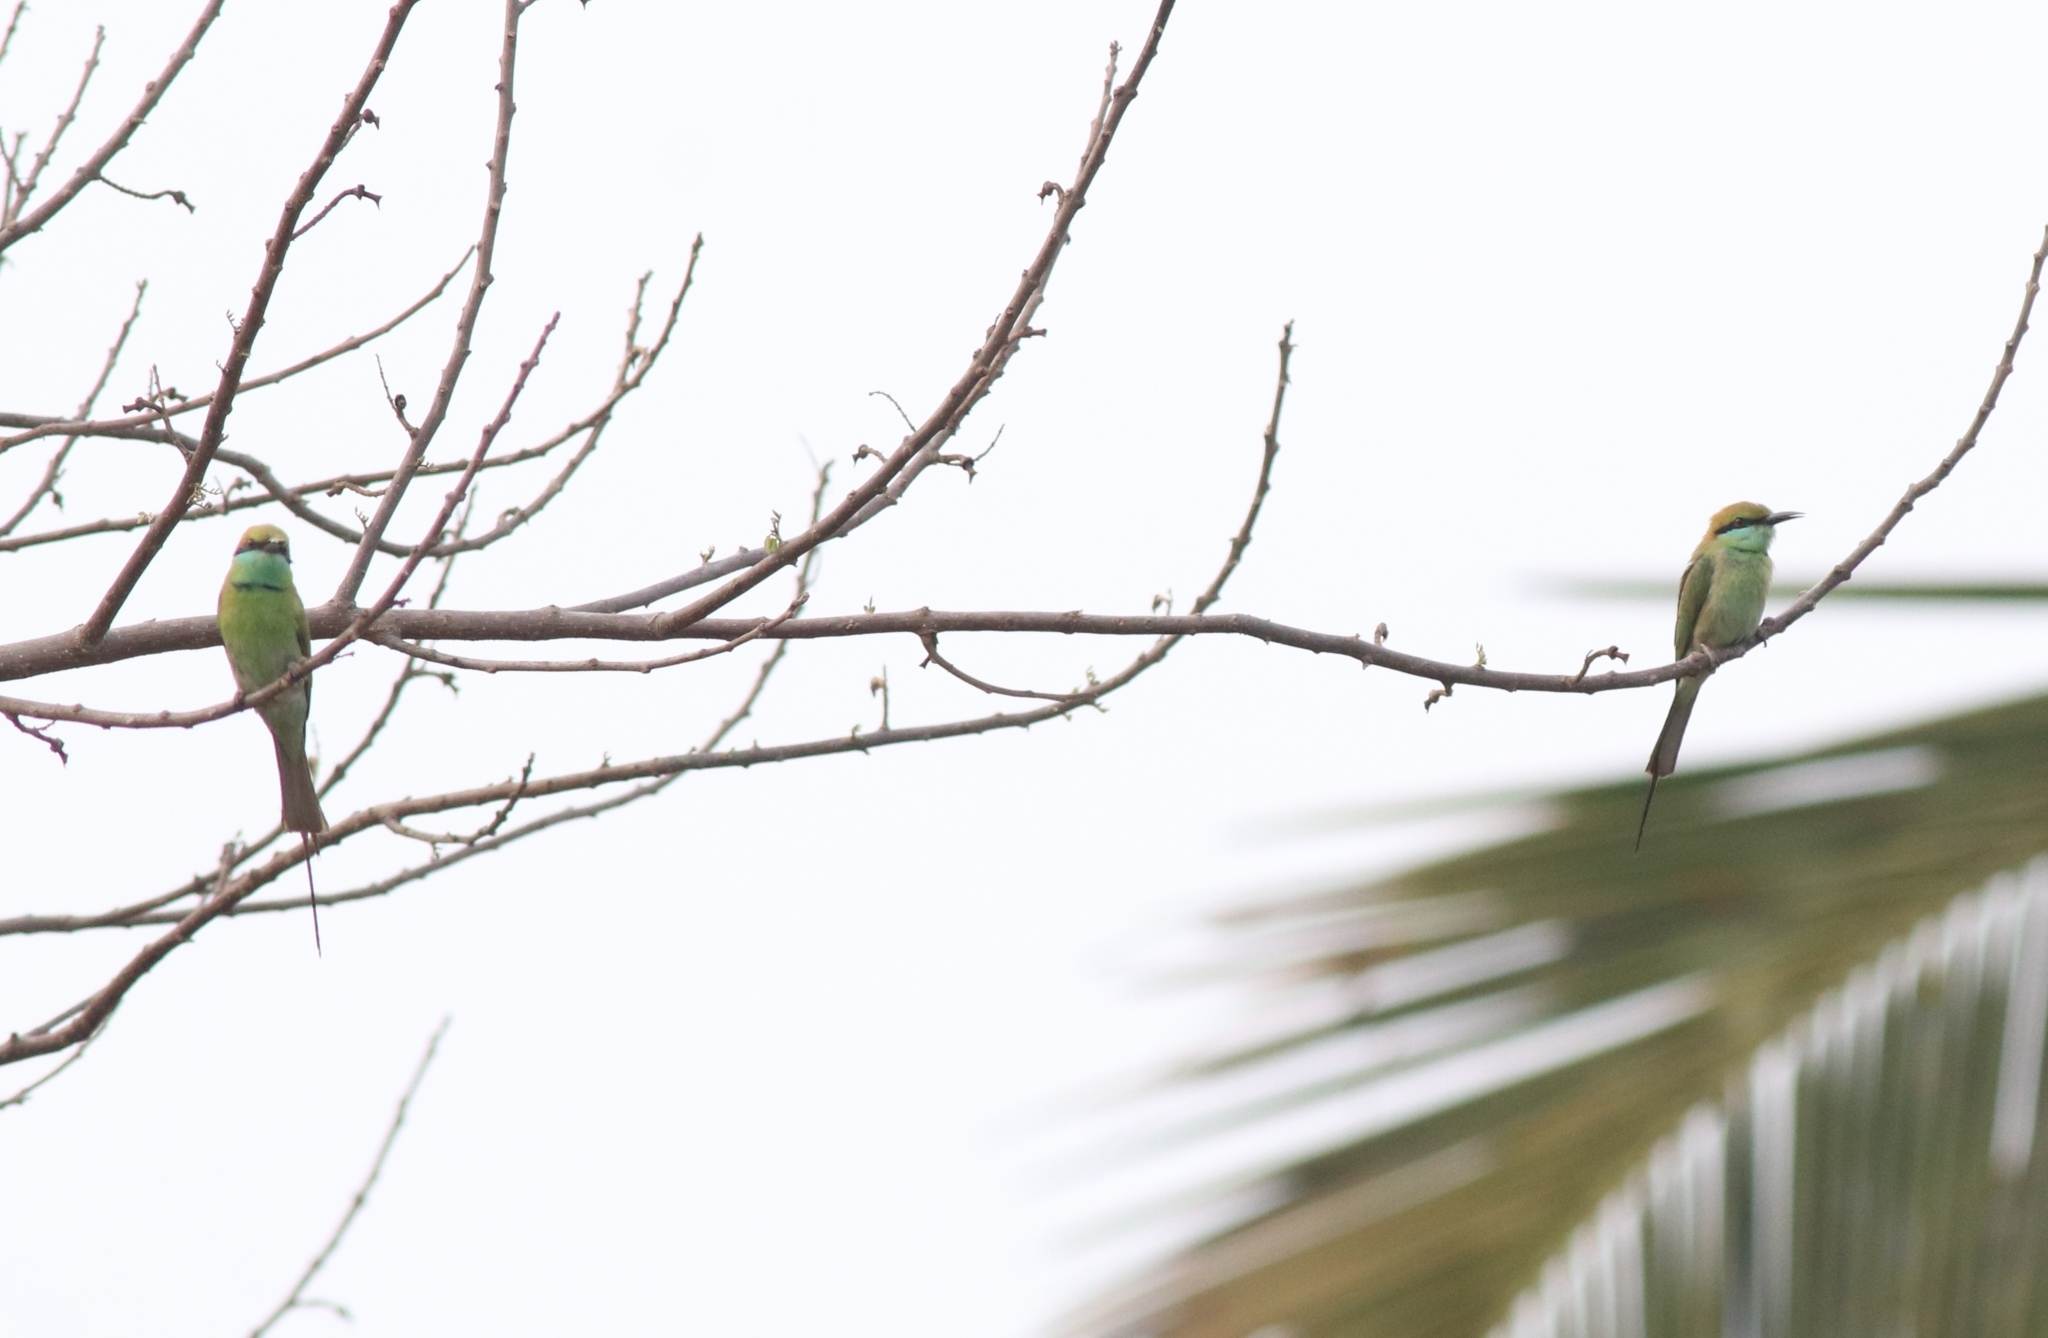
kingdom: Animalia
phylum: Chordata
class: Aves
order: Coraciiformes
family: Meropidae
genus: Merops
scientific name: Merops orientalis
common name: Green bee-eater
